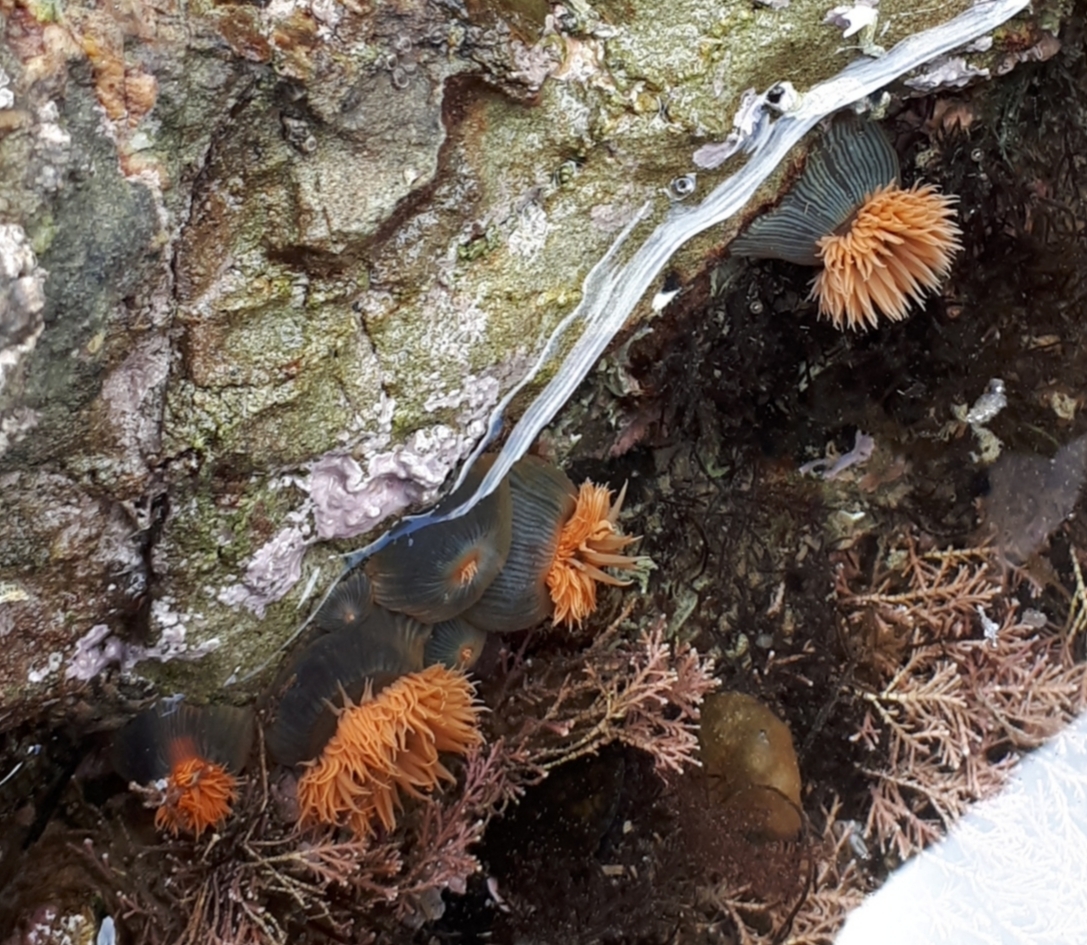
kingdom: Animalia
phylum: Cnidaria
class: Anthozoa
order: Actiniaria
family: Diadumenidae
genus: Diadumene
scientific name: Diadumene neozelanica
